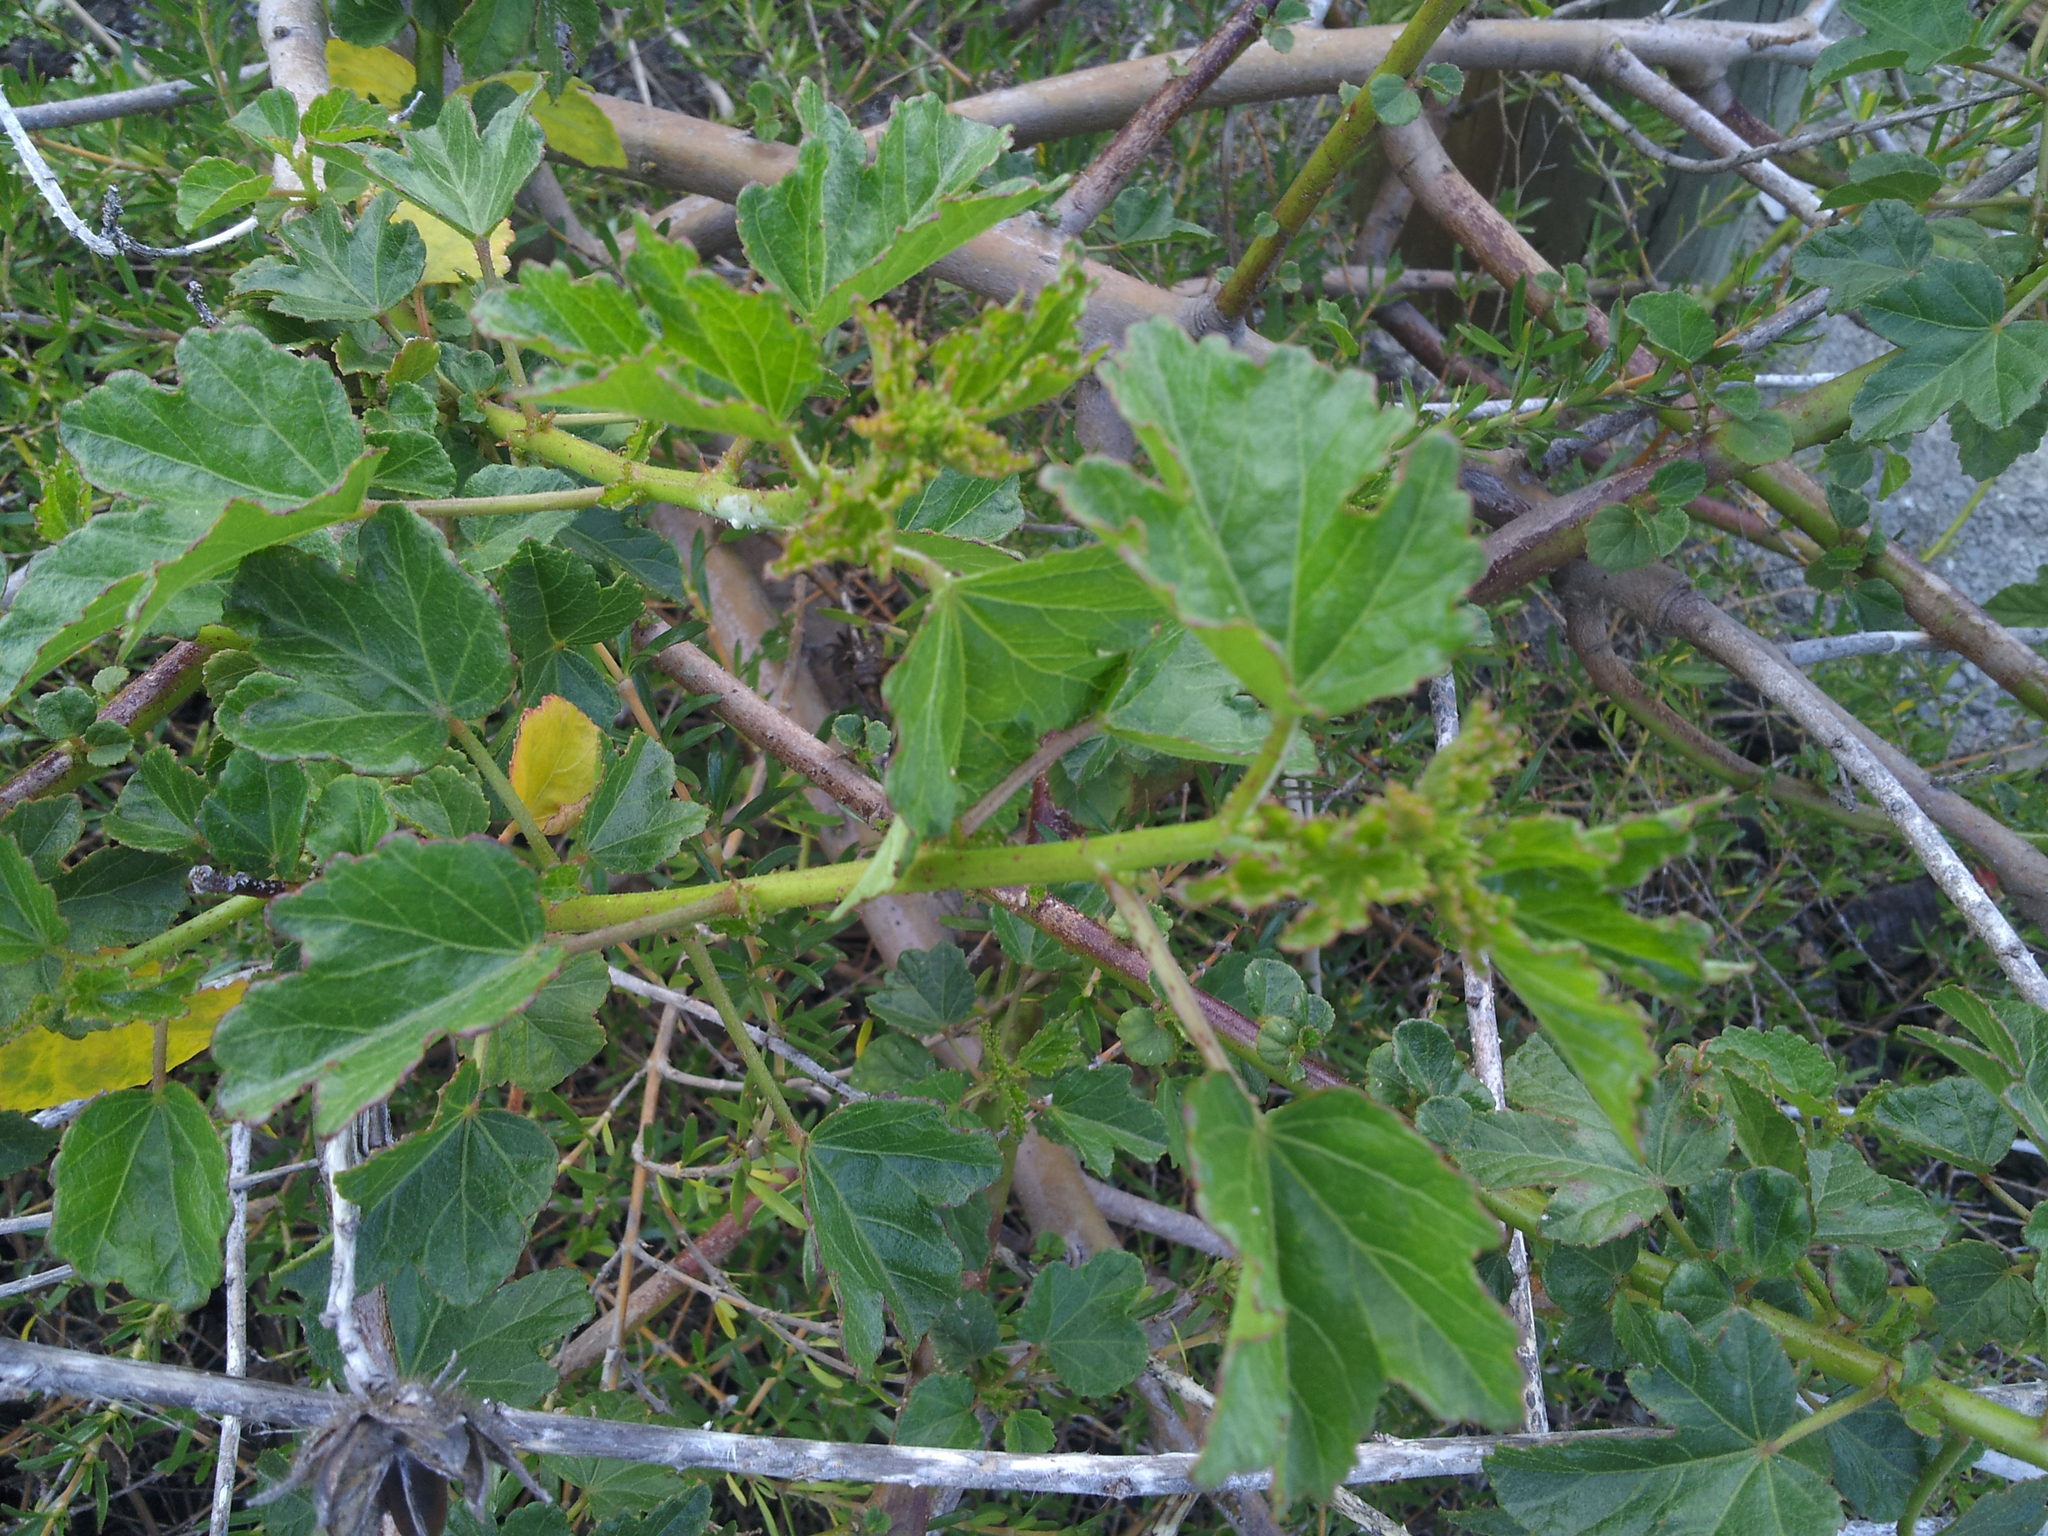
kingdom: Plantae
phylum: Tracheophyta
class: Magnoliopsida
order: Malvales
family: Malvaceae
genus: Hibiscus
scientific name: Hibiscus diversifolius
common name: Cape hibiscus
